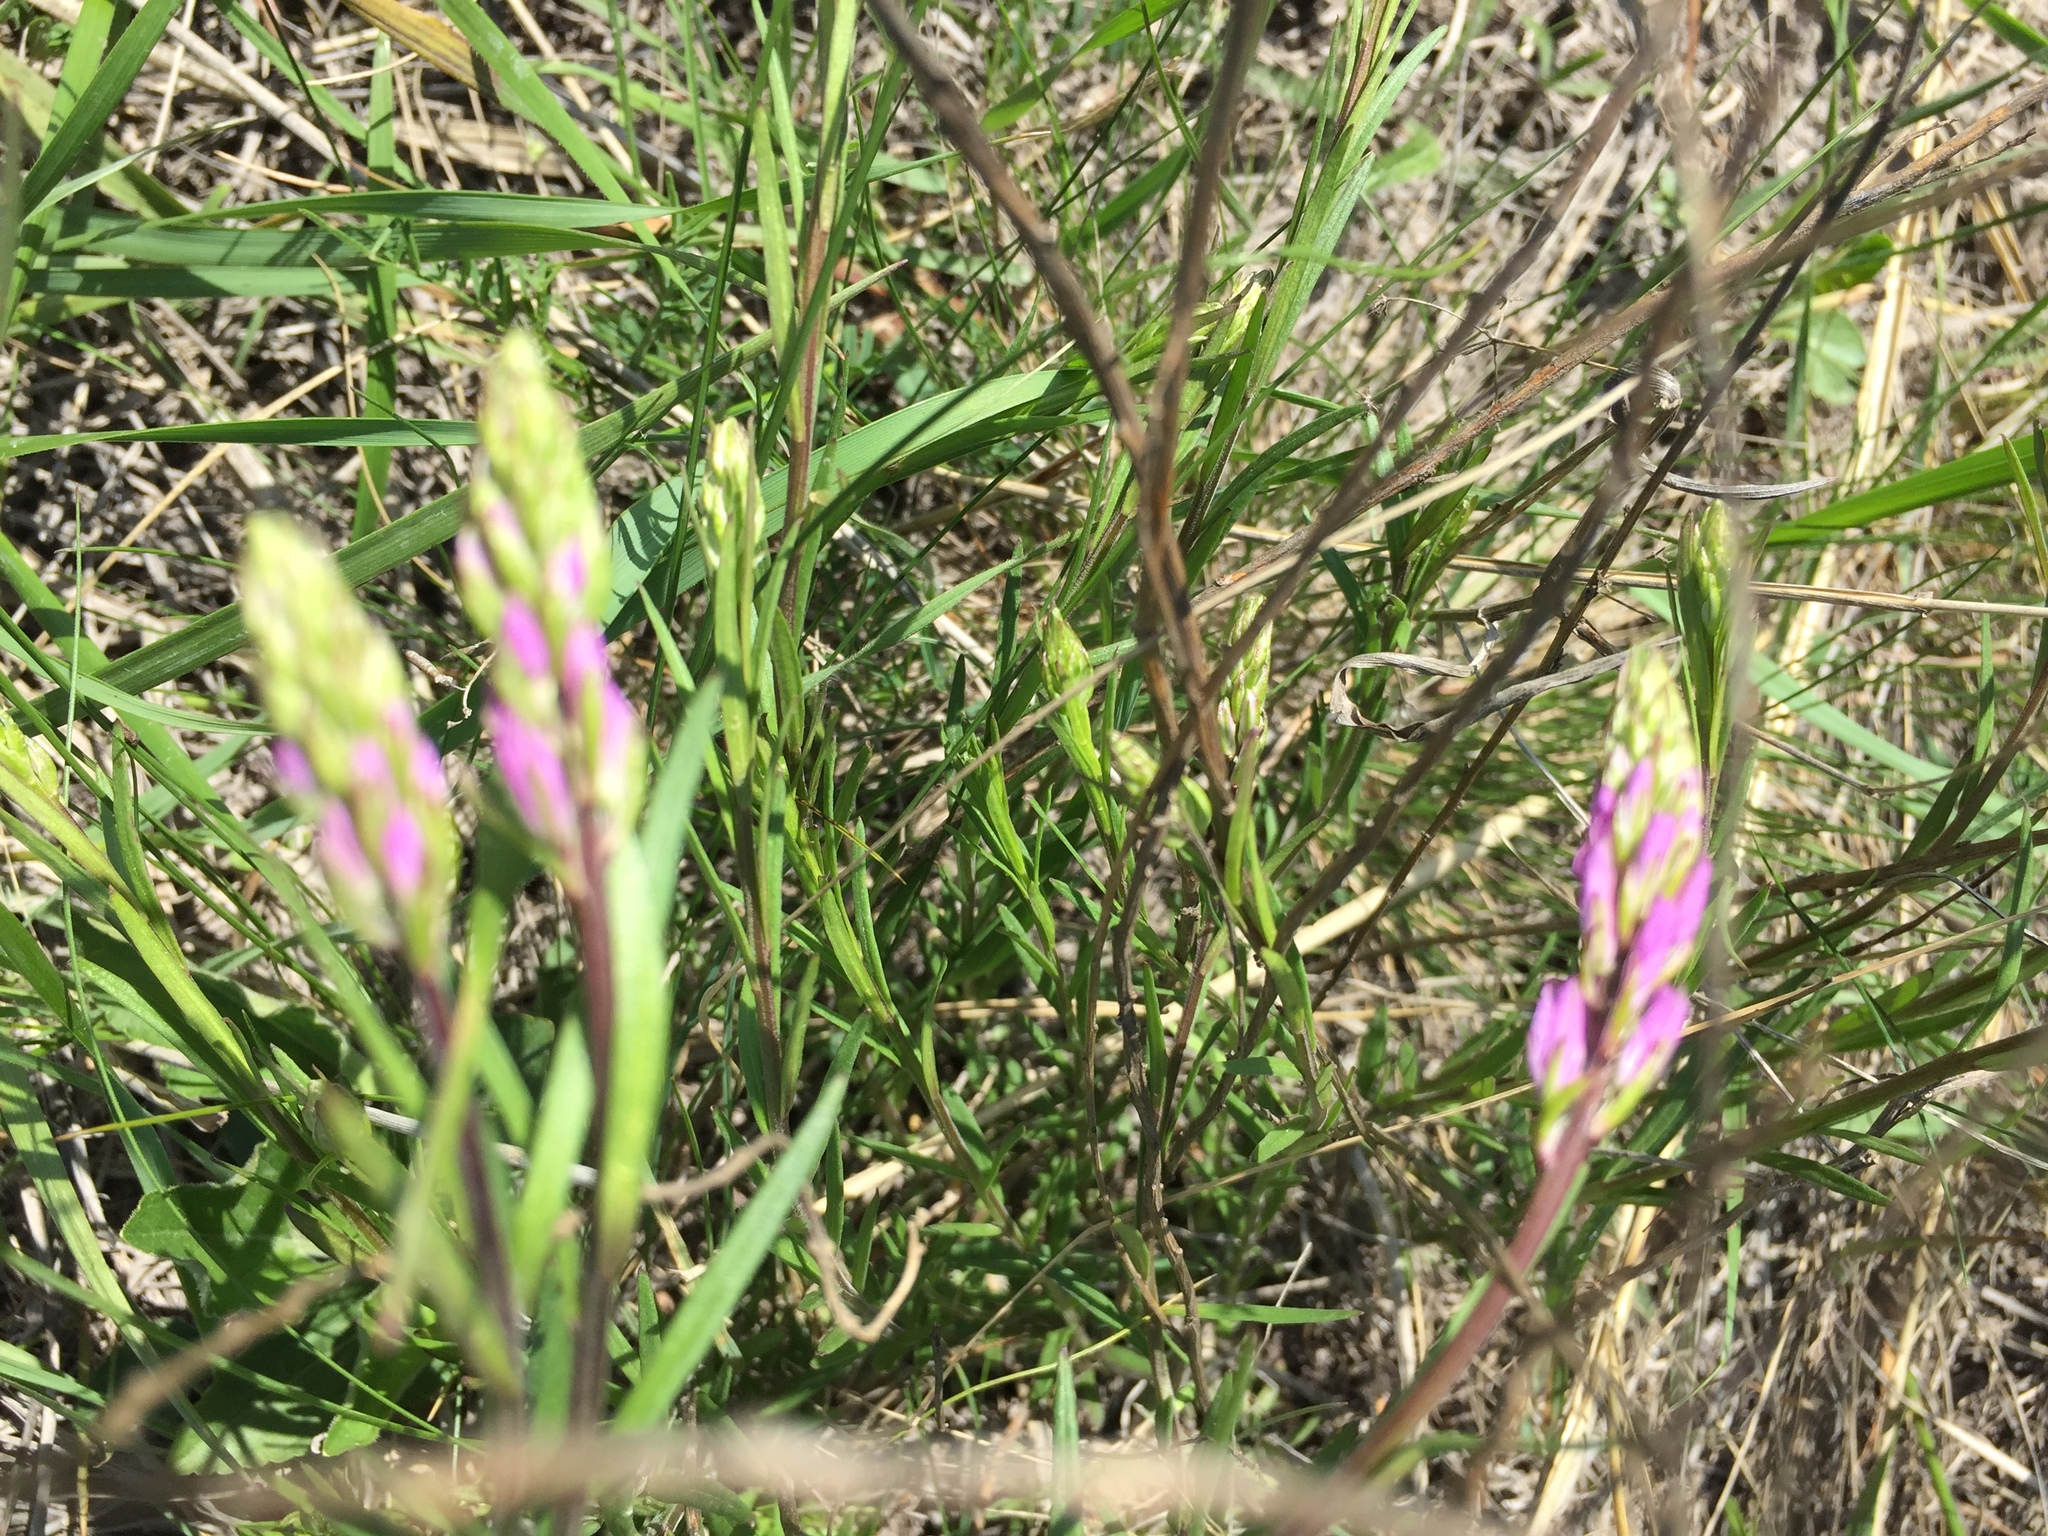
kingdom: Plantae
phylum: Tracheophyta
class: Magnoliopsida
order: Fabales
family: Polygalaceae
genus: Polygala
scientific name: Polygala nicaeensis
